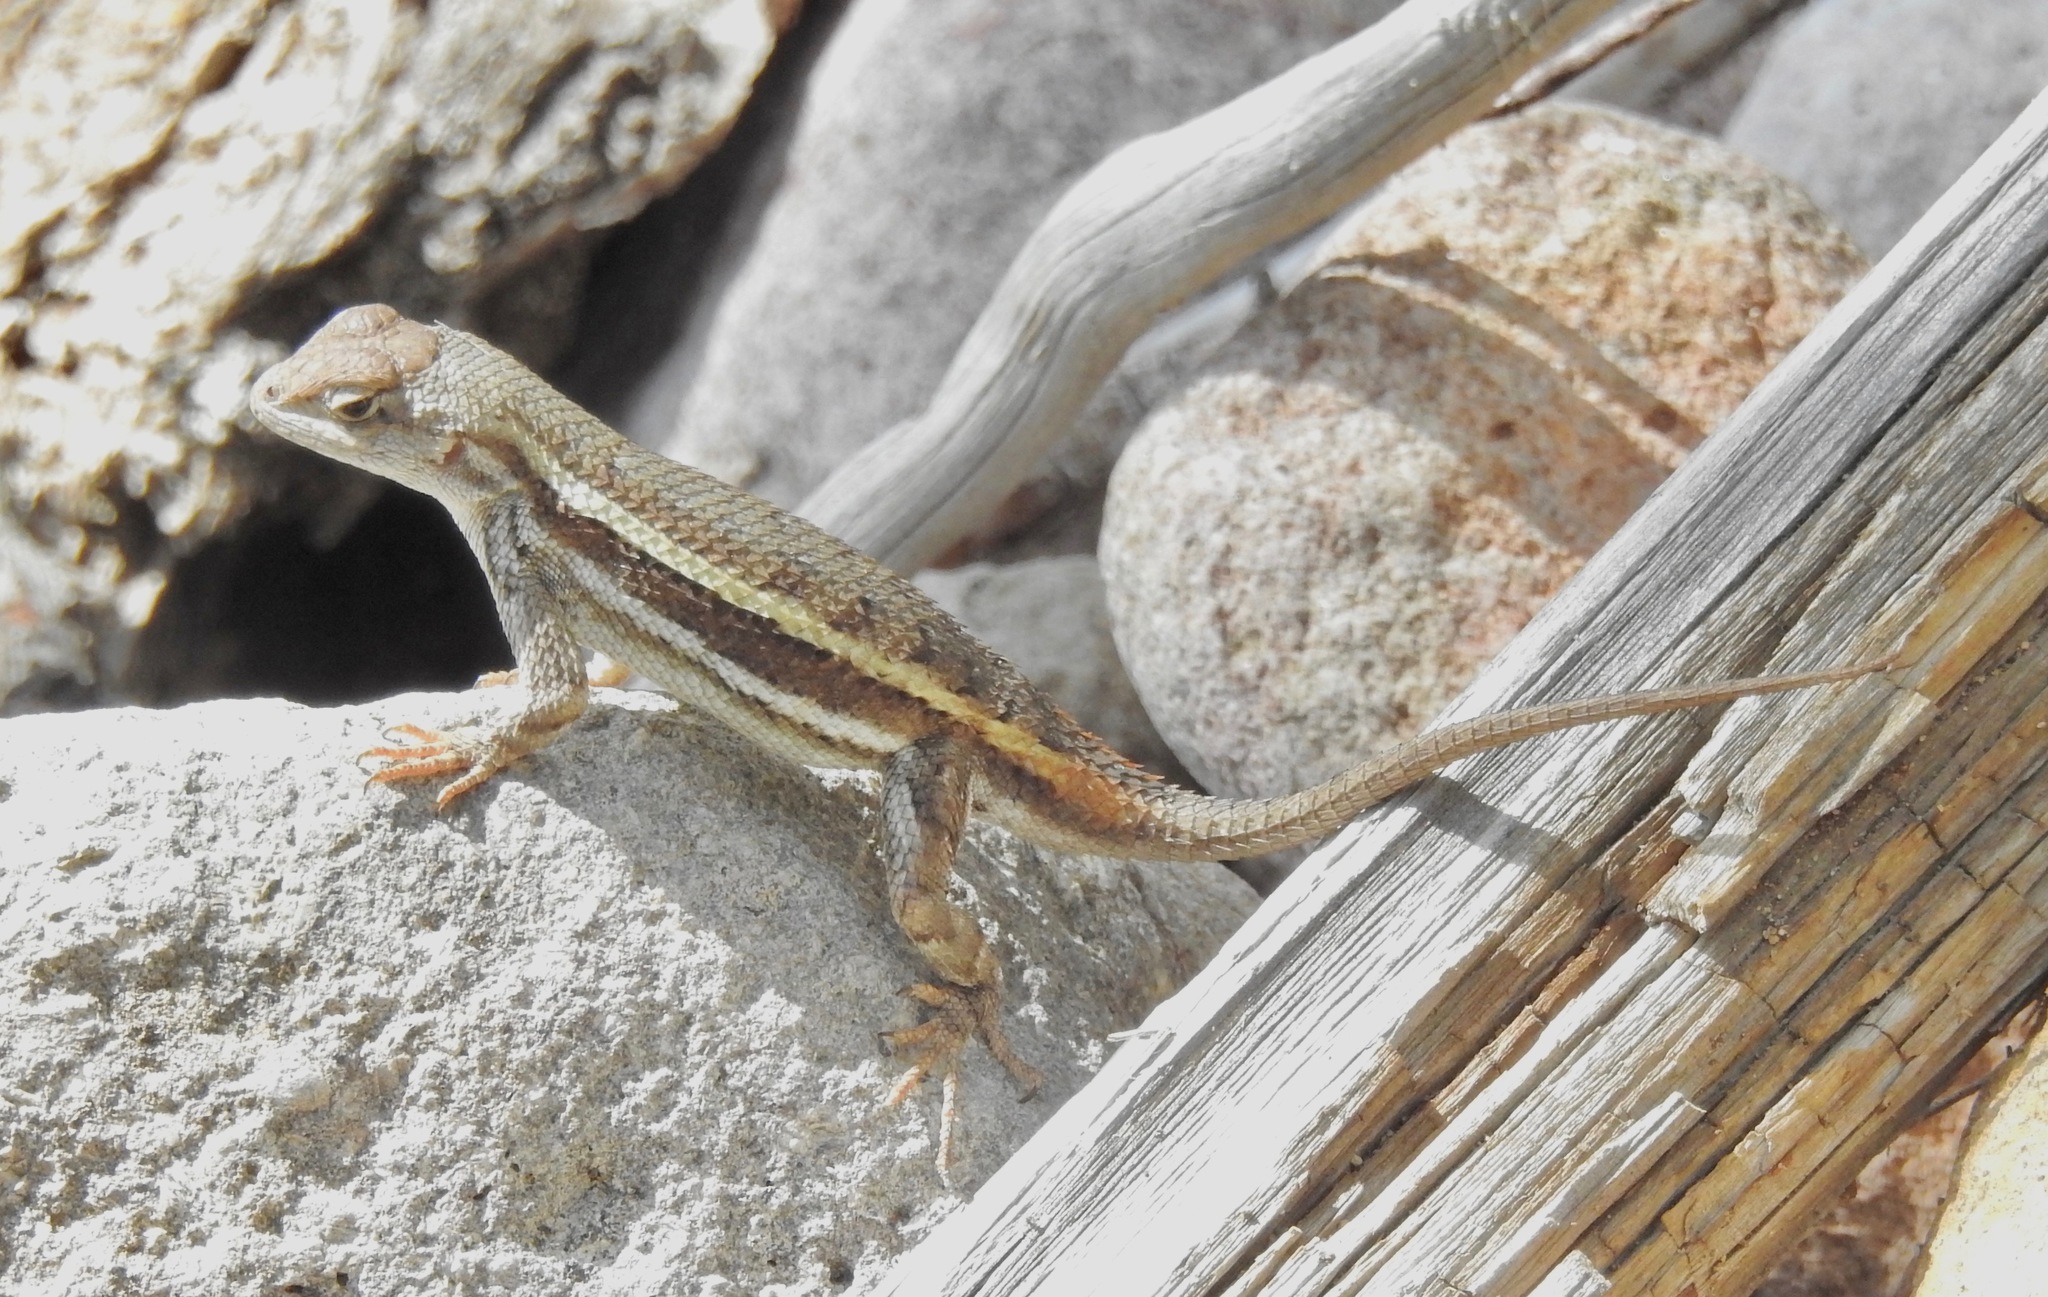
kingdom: Animalia
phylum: Chordata
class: Squamata
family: Phrynosomatidae
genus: Sceloporus
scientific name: Sceloporus virgatus
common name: Striped plateau lizard
